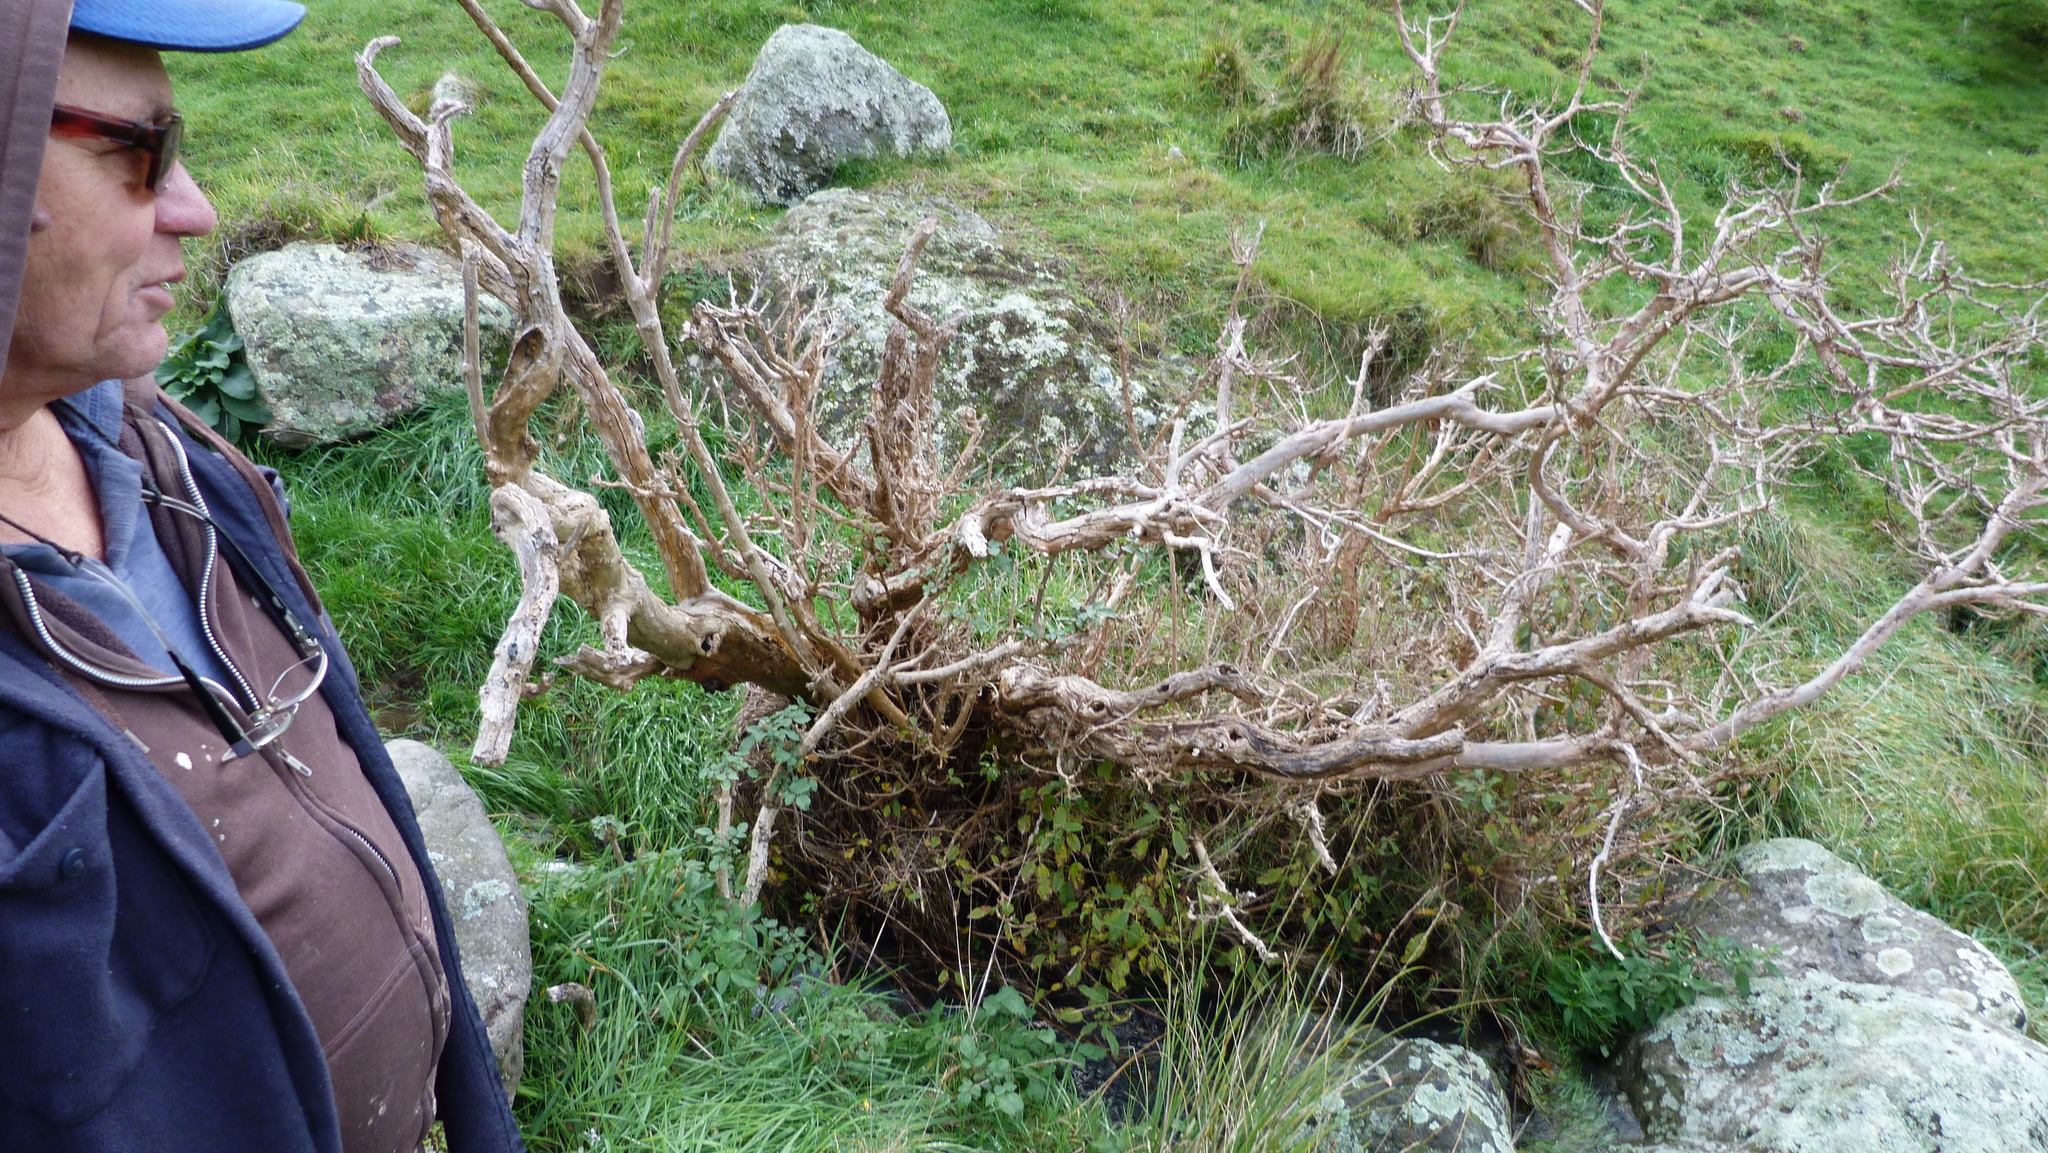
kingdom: Plantae
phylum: Tracheophyta
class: Magnoliopsida
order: Myrtales
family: Onagraceae
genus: Fuchsia
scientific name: Fuchsia excorticata
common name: Tree fuchsia
